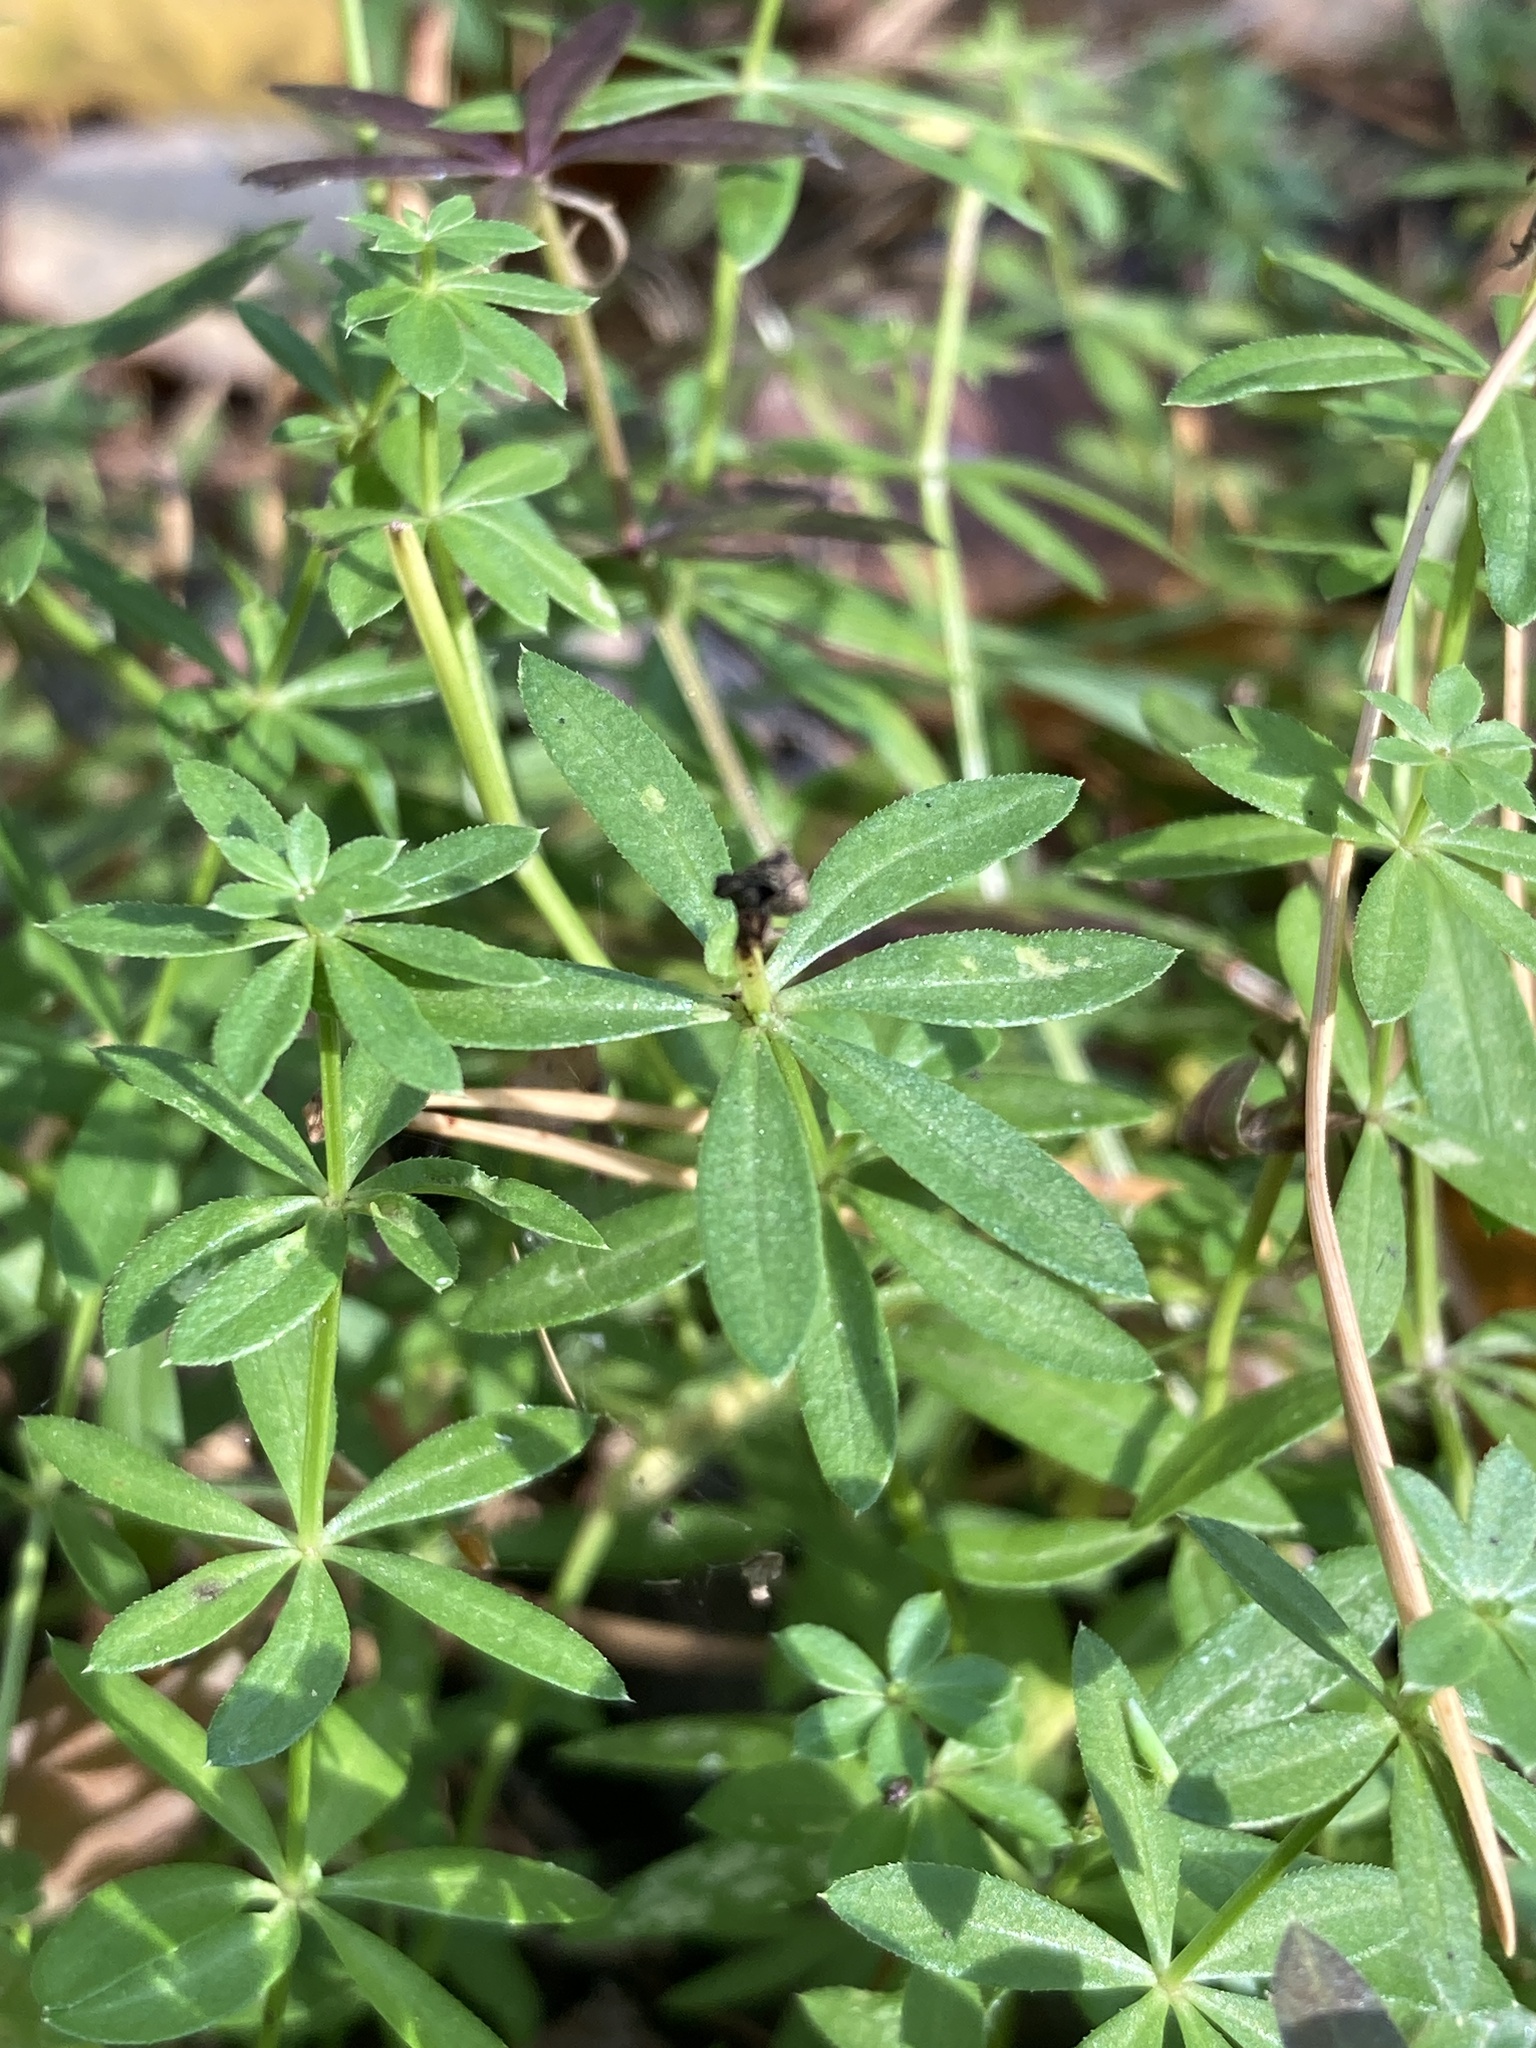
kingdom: Plantae
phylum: Tracheophyta
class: Magnoliopsida
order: Gentianales
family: Rubiaceae
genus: Galium
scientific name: Galium mollugo
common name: Hedge bedstraw
